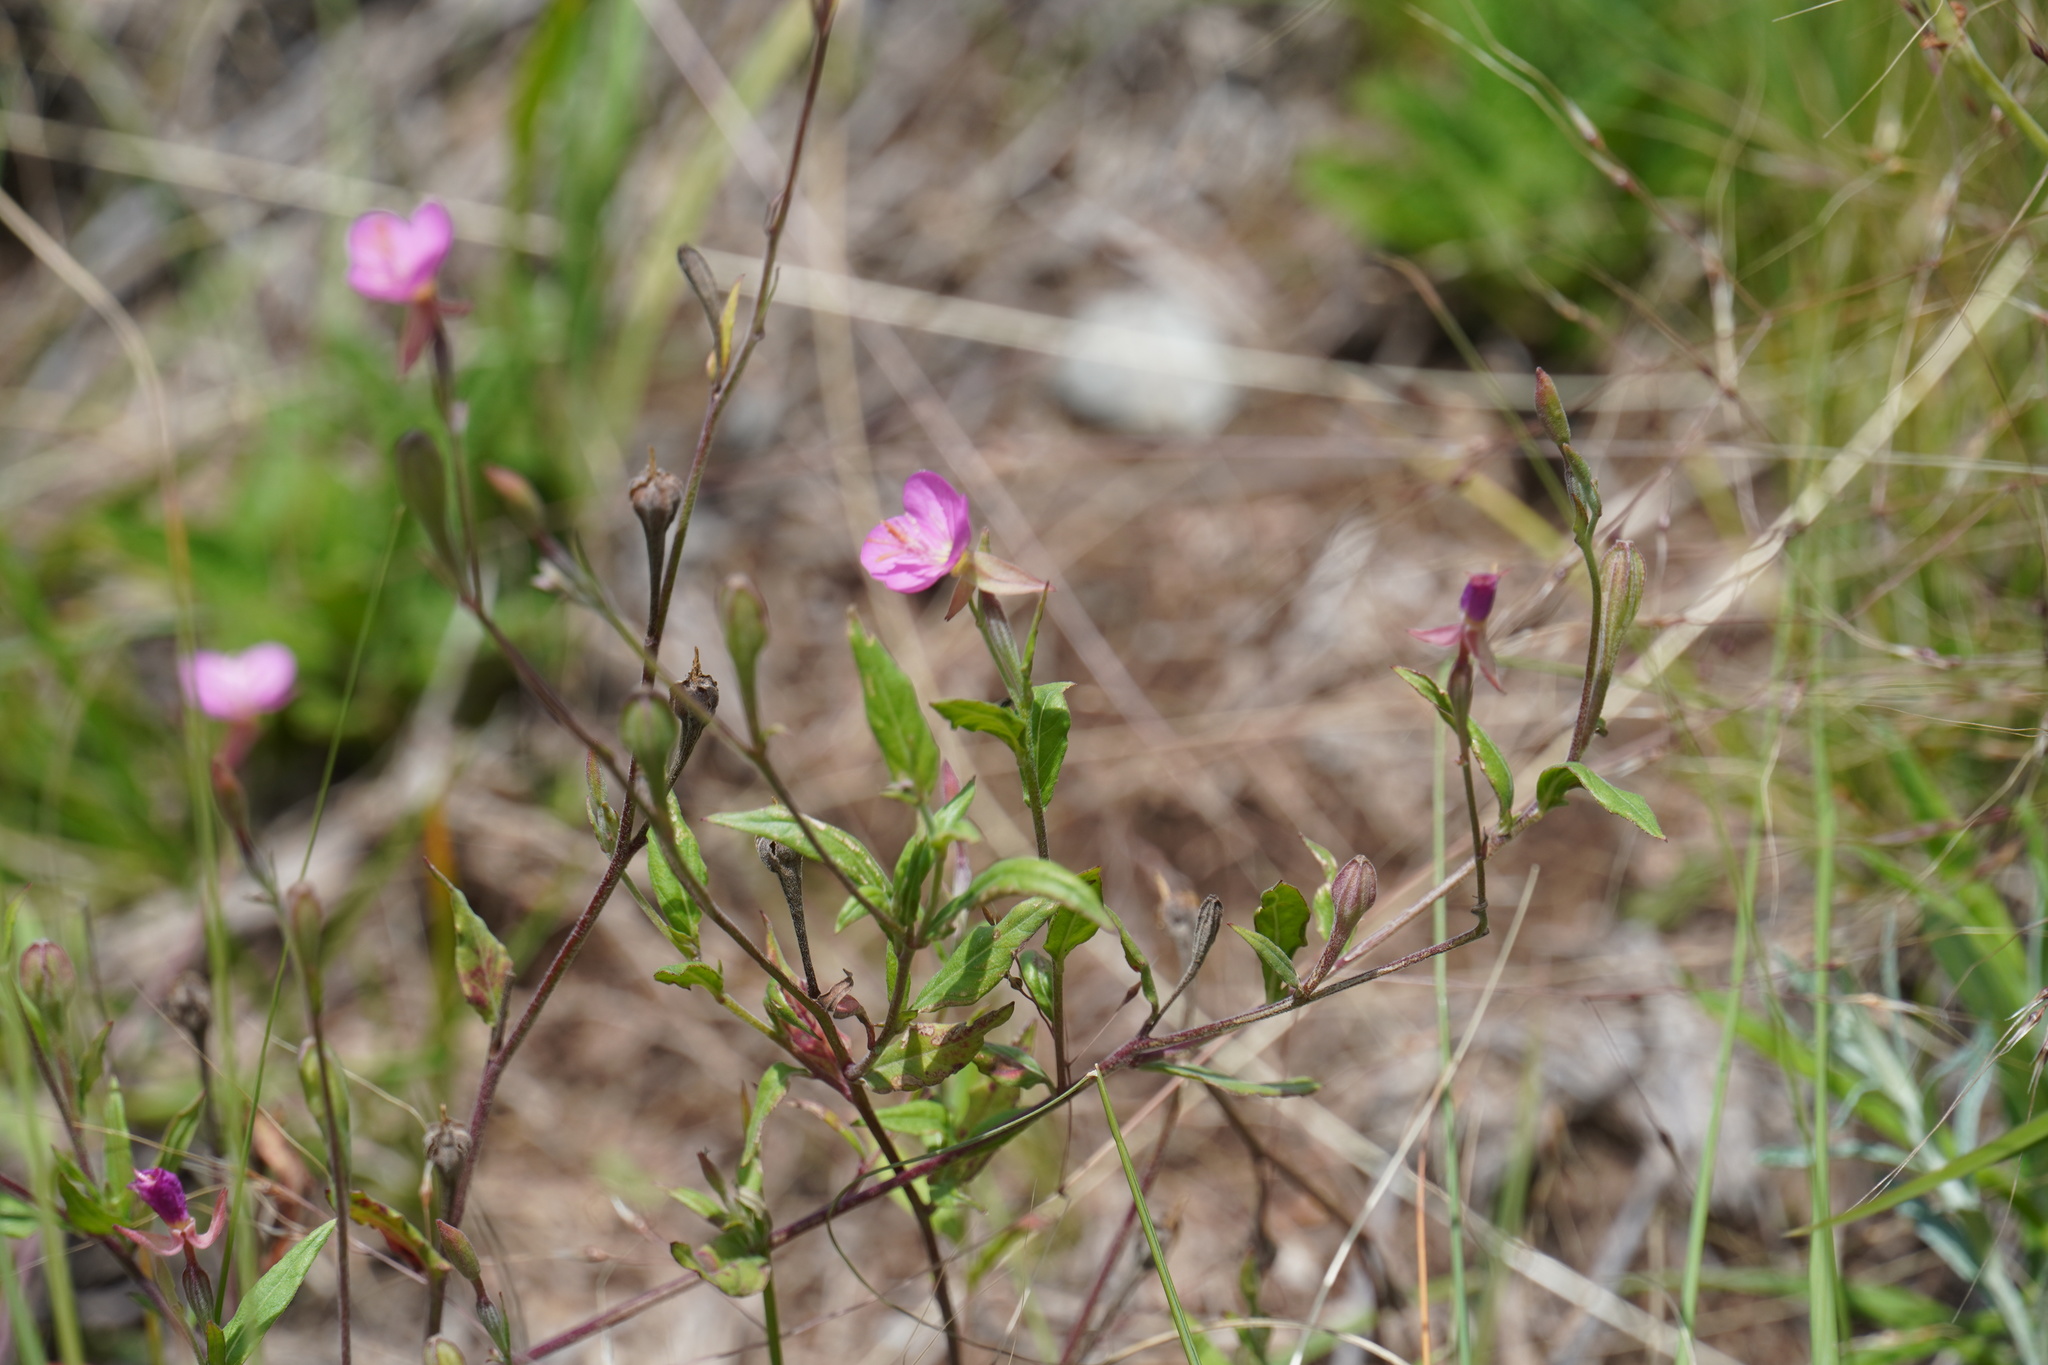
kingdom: Plantae
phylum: Tracheophyta
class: Magnoliopsida
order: Myrtales
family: Onagraceae
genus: Oenothera
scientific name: Oenothera rosea
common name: Rosy evening-primrose
